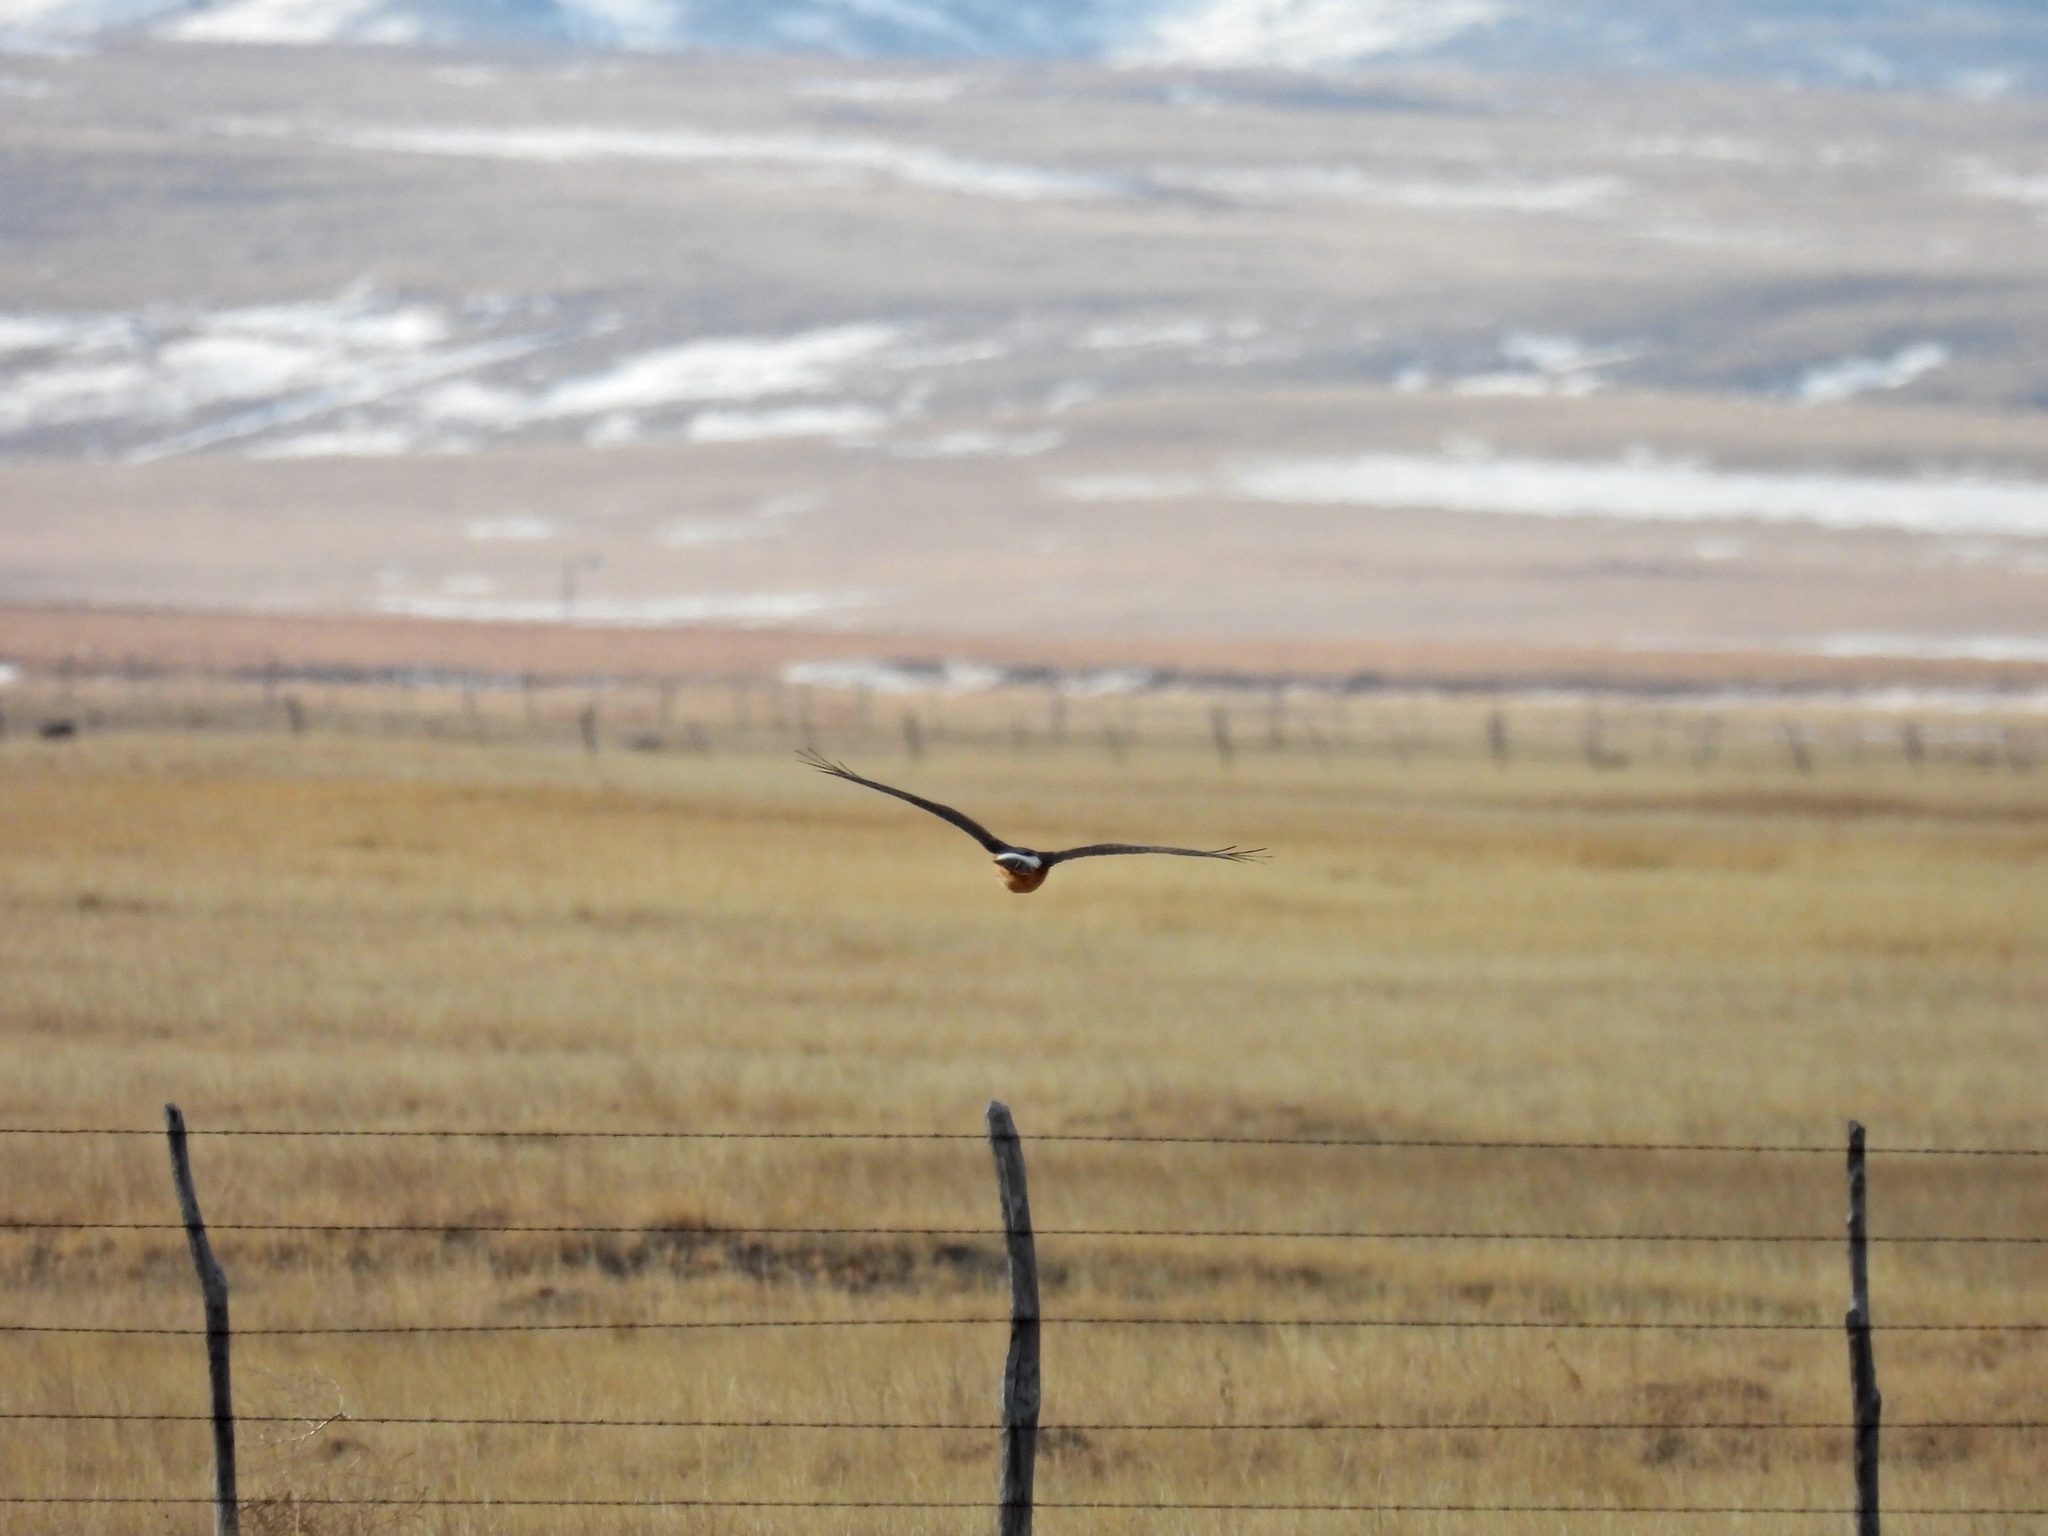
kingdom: Animalia
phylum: Chordata
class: Aves
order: Accipitriformes
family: Accipitridae
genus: Circus
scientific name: Circus cyaneus
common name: Hen harrier
